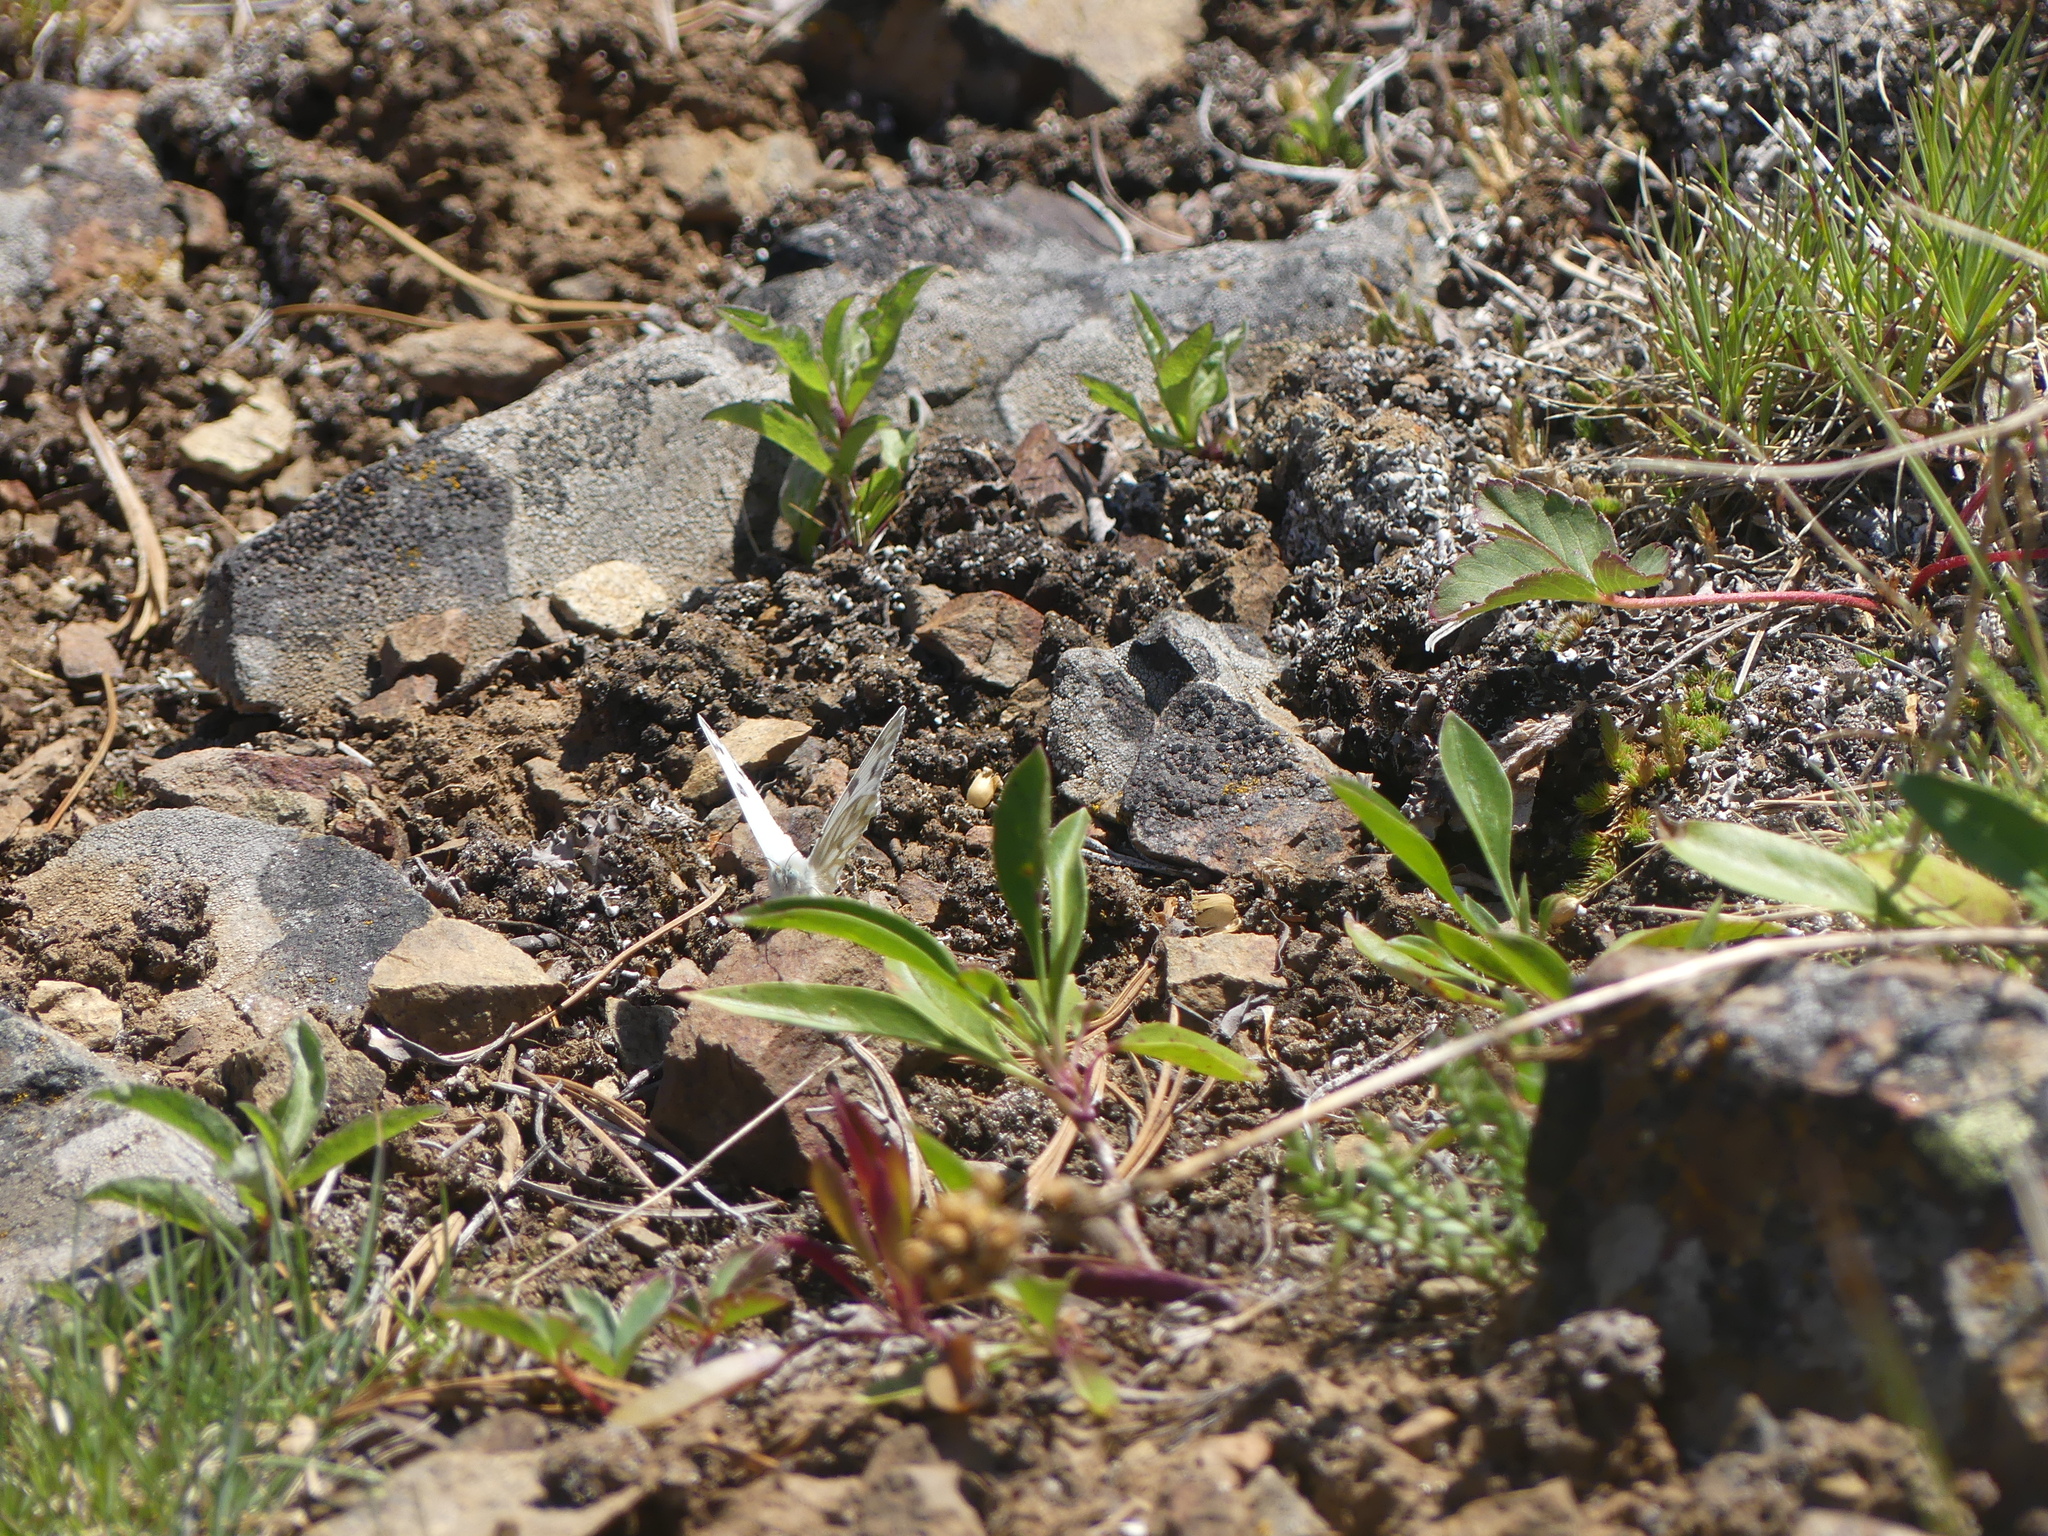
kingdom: Animalia
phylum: Arthropoda
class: Insecta
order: Lepidoptera
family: Pieridae
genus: Pontia
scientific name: Pontia occidentalis
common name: Western white
